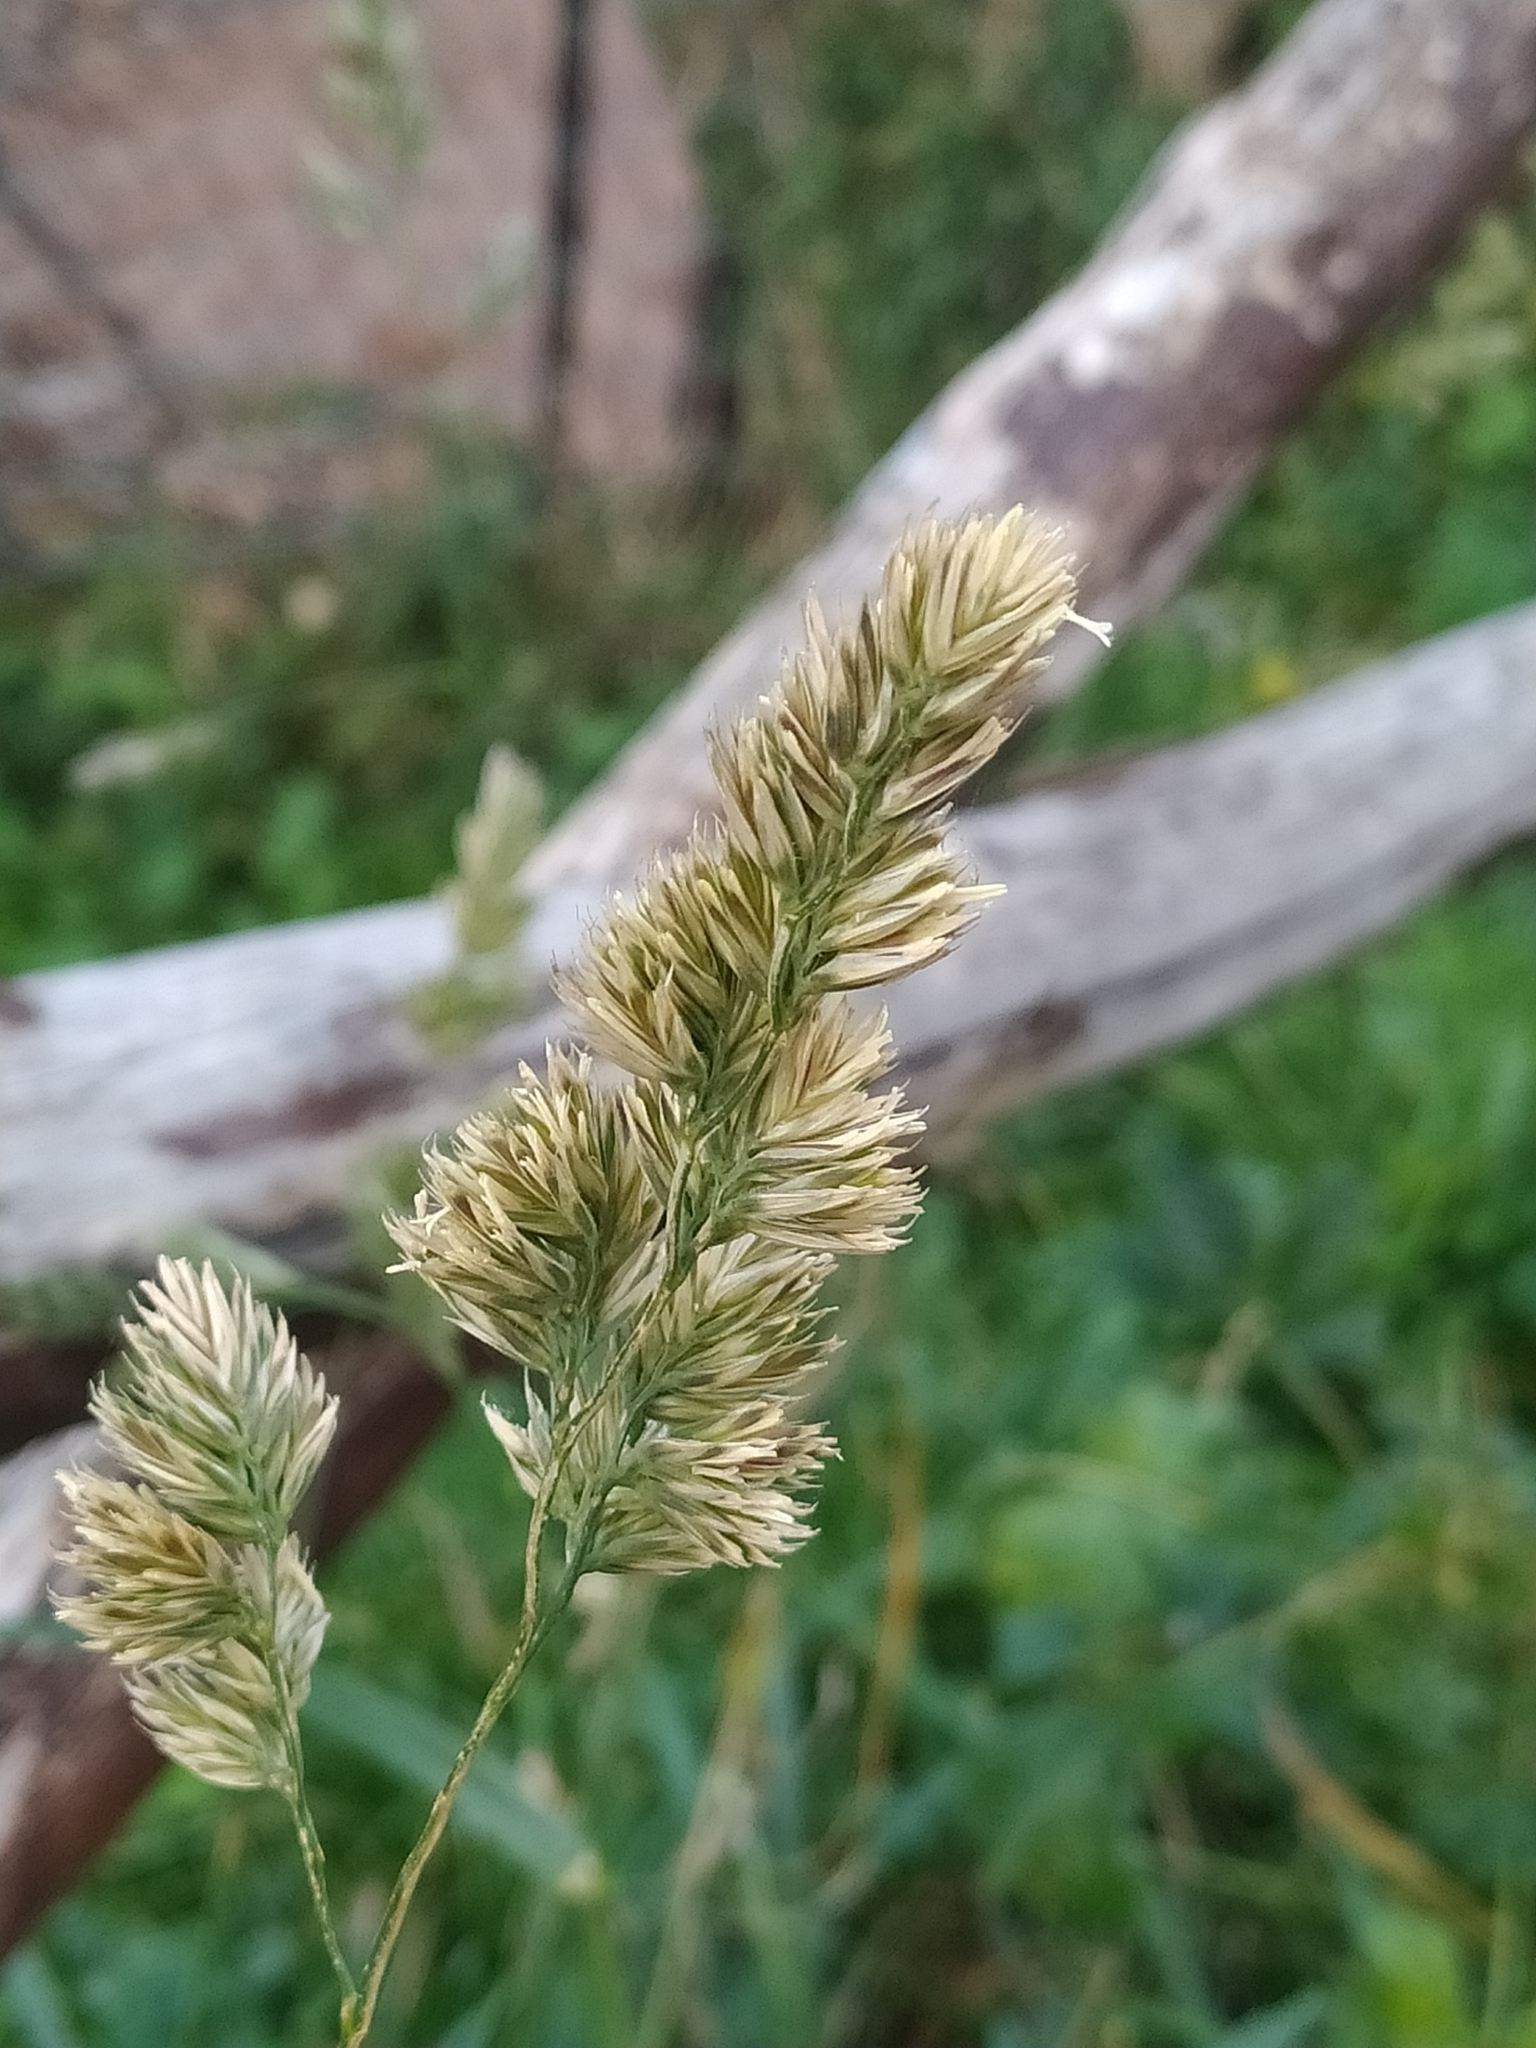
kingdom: Plantae
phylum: Tracheophyta
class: Liliopsida
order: Poales
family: Poaceae
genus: Dactylis
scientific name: Dactylis glomerata
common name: Orchardgrass
